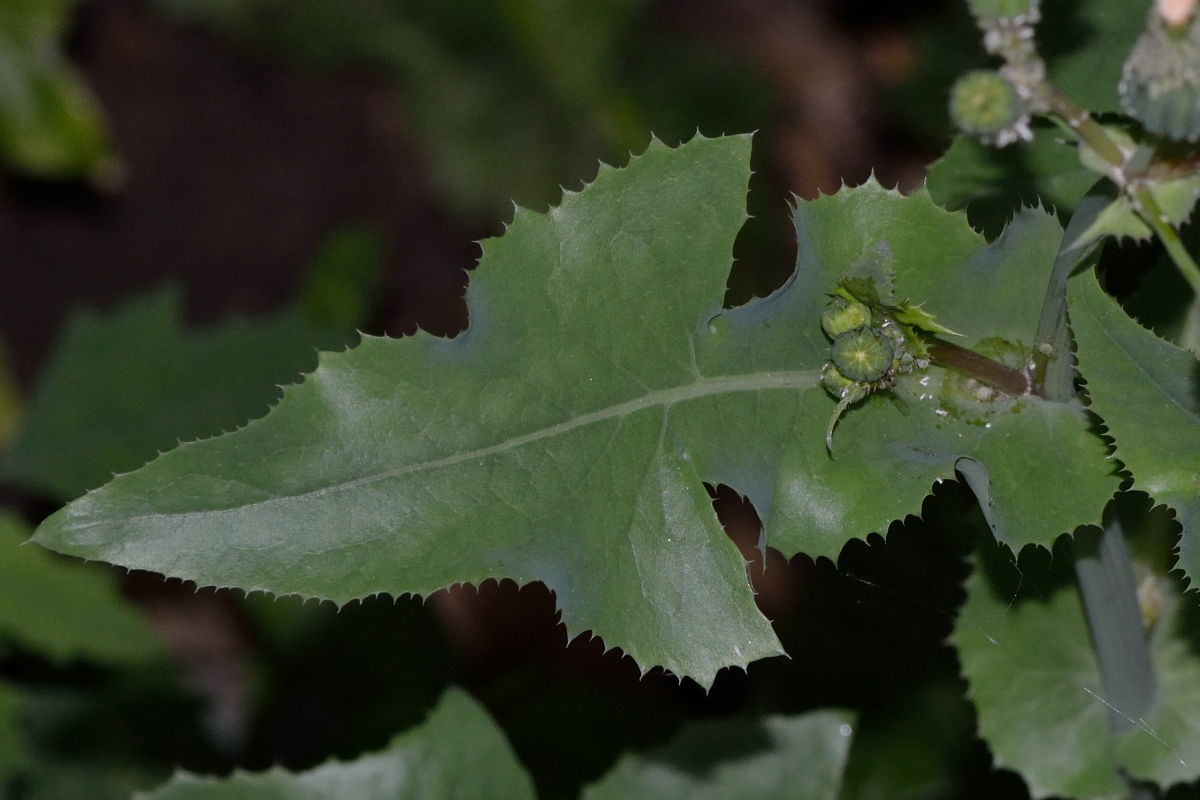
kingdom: Plantae
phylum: Tracheophyta
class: Magnoliopsida
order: Asterales
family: Asteraceae
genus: Sonchus
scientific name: Sonchus oleraceus
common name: Common sowthistle
